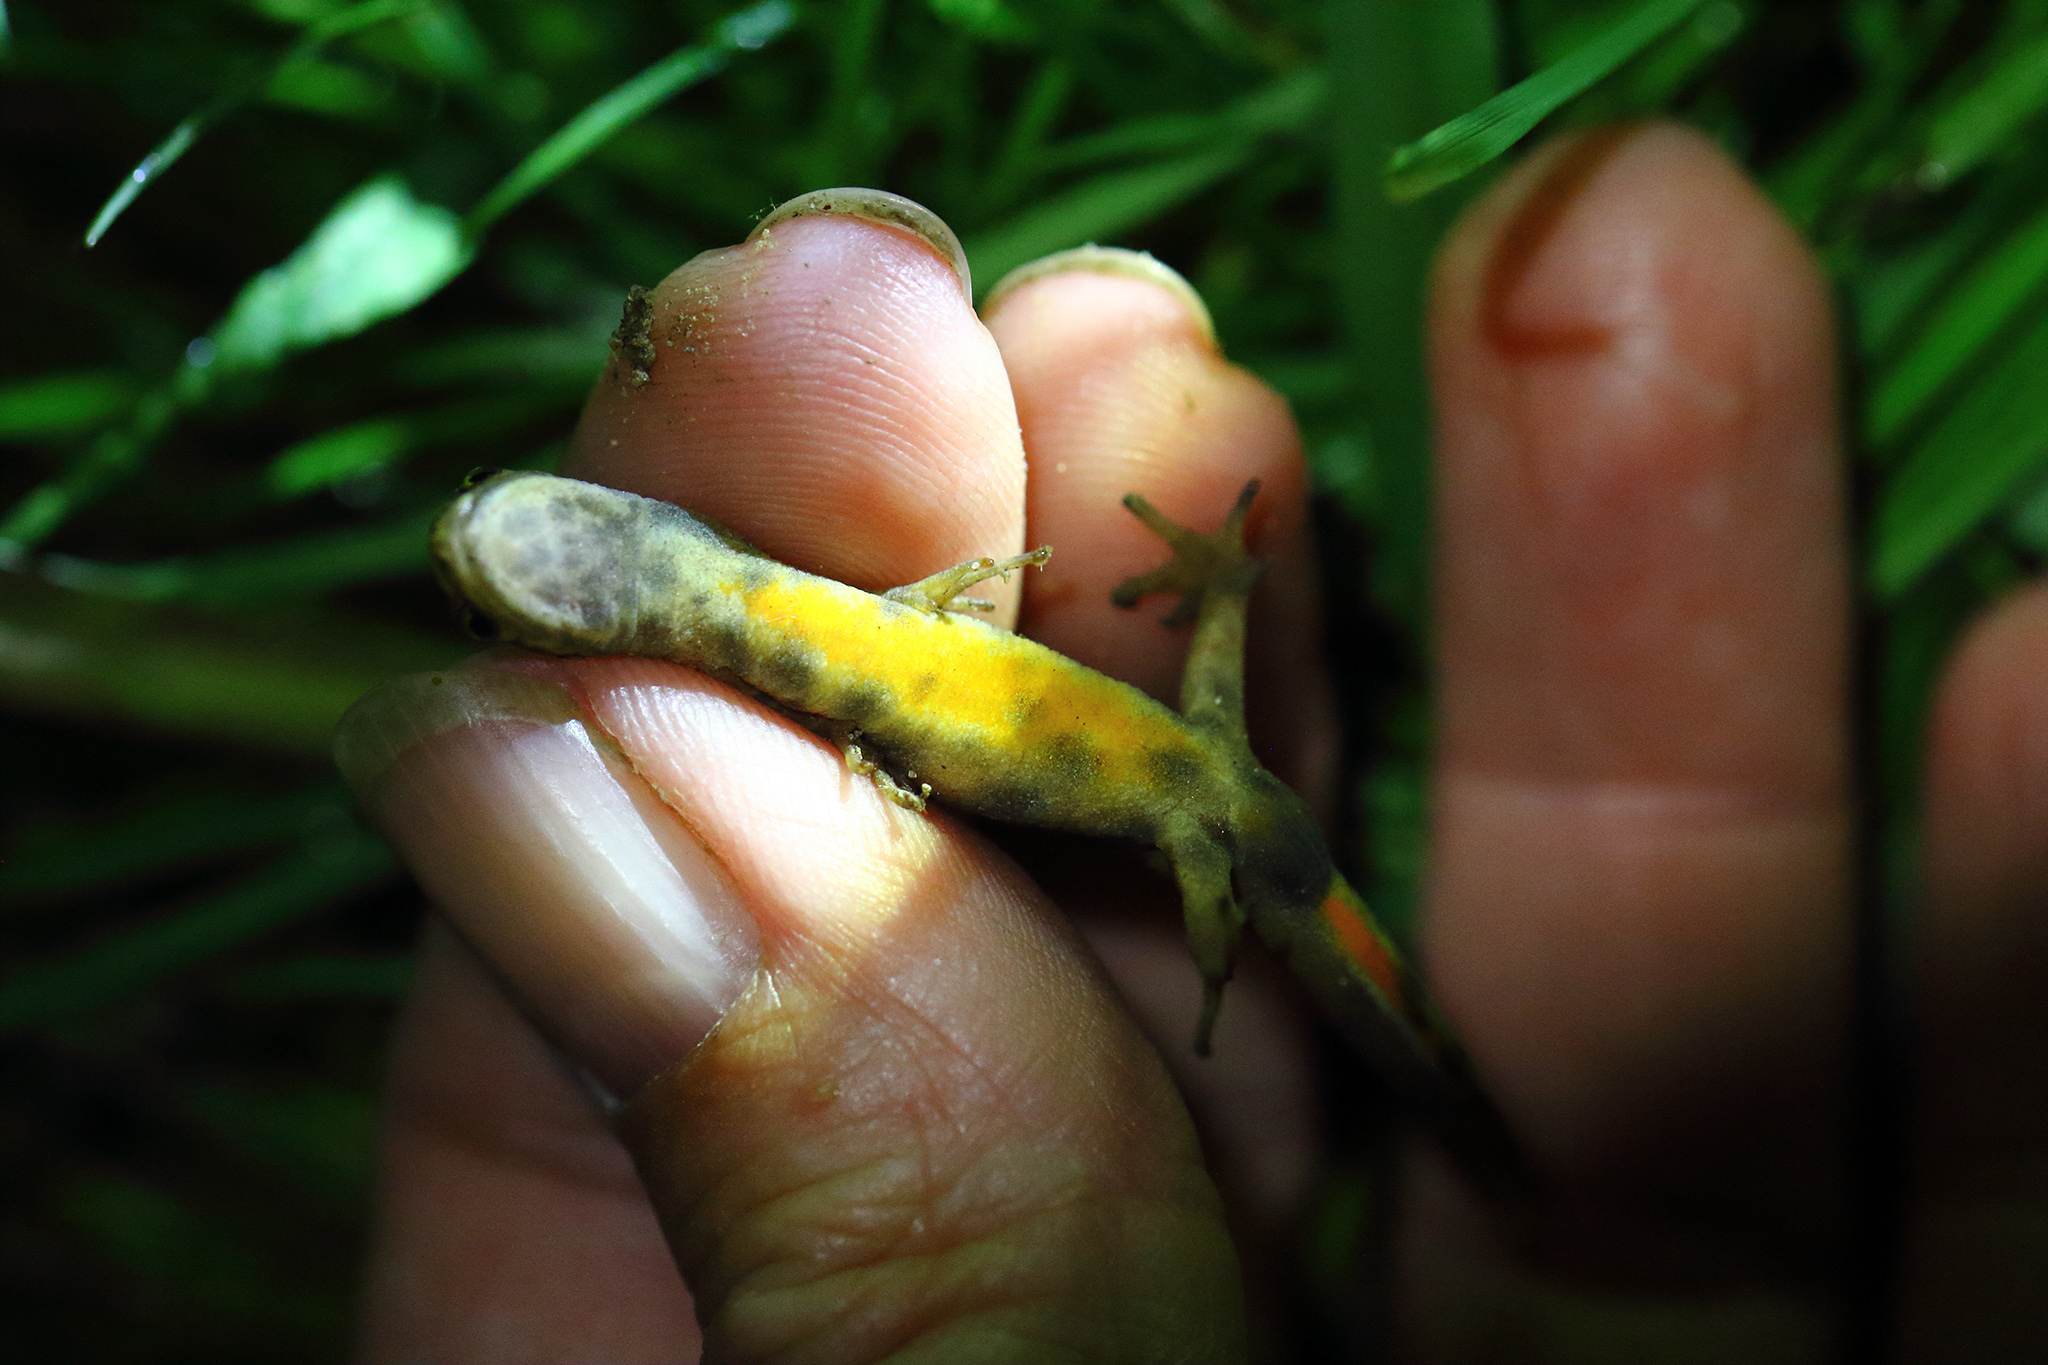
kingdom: Animalia
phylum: Chordata
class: Amphibia
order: Caudata
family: Salamandridae
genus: Lissotriton
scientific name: Lissotriton vulgaris
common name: Smooth newt
